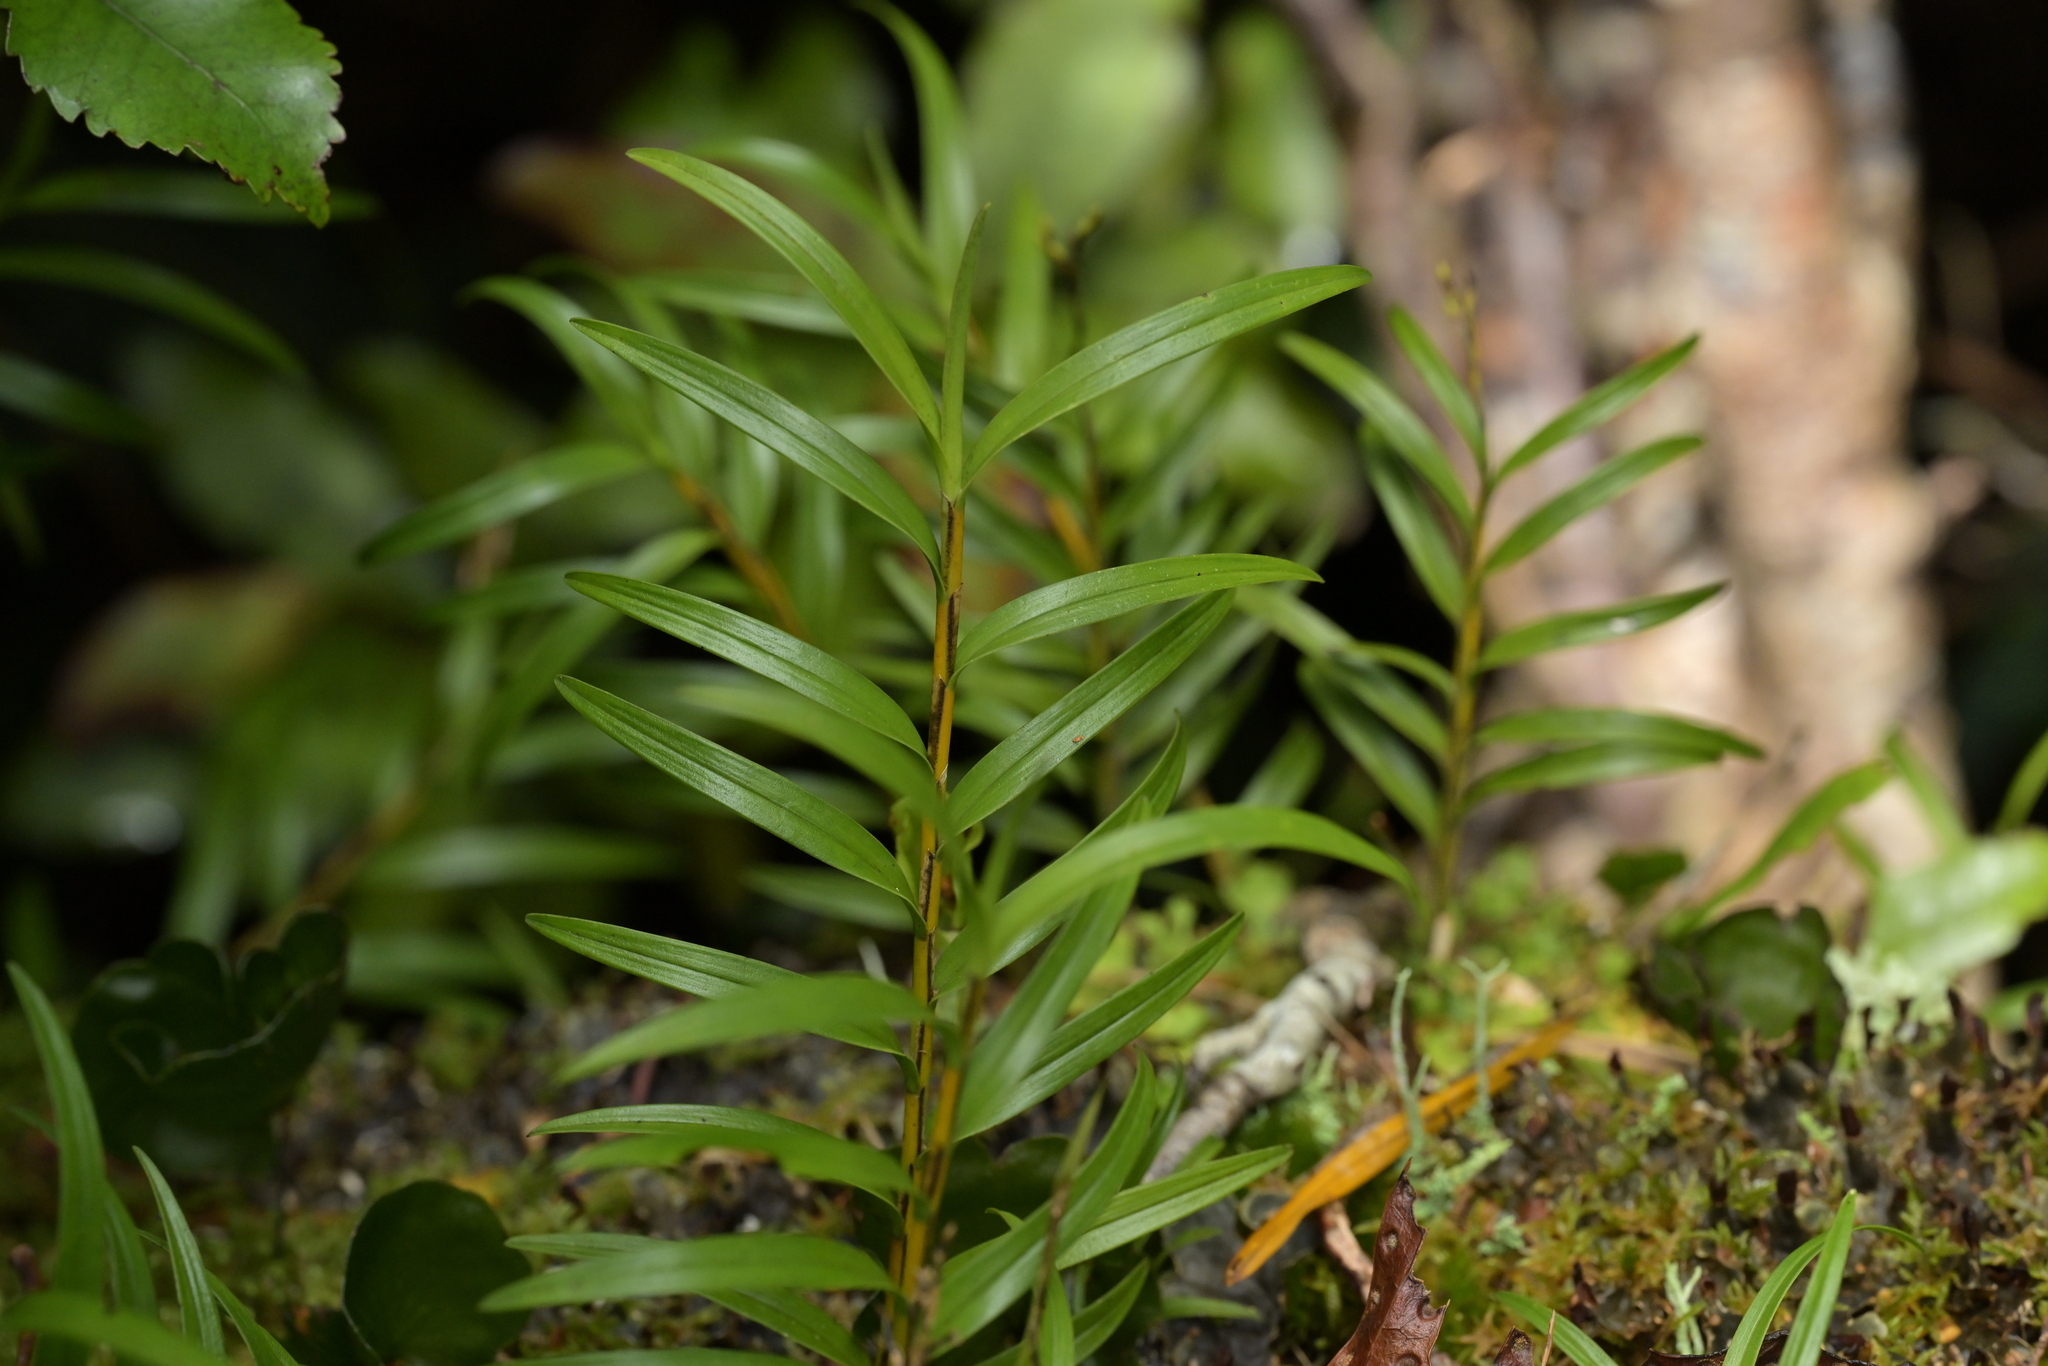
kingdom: Plantae
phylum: Tracheophyta
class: Liliopsida
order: Asparagales
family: Orchidaceae
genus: Earina
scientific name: Earina autumnalis
